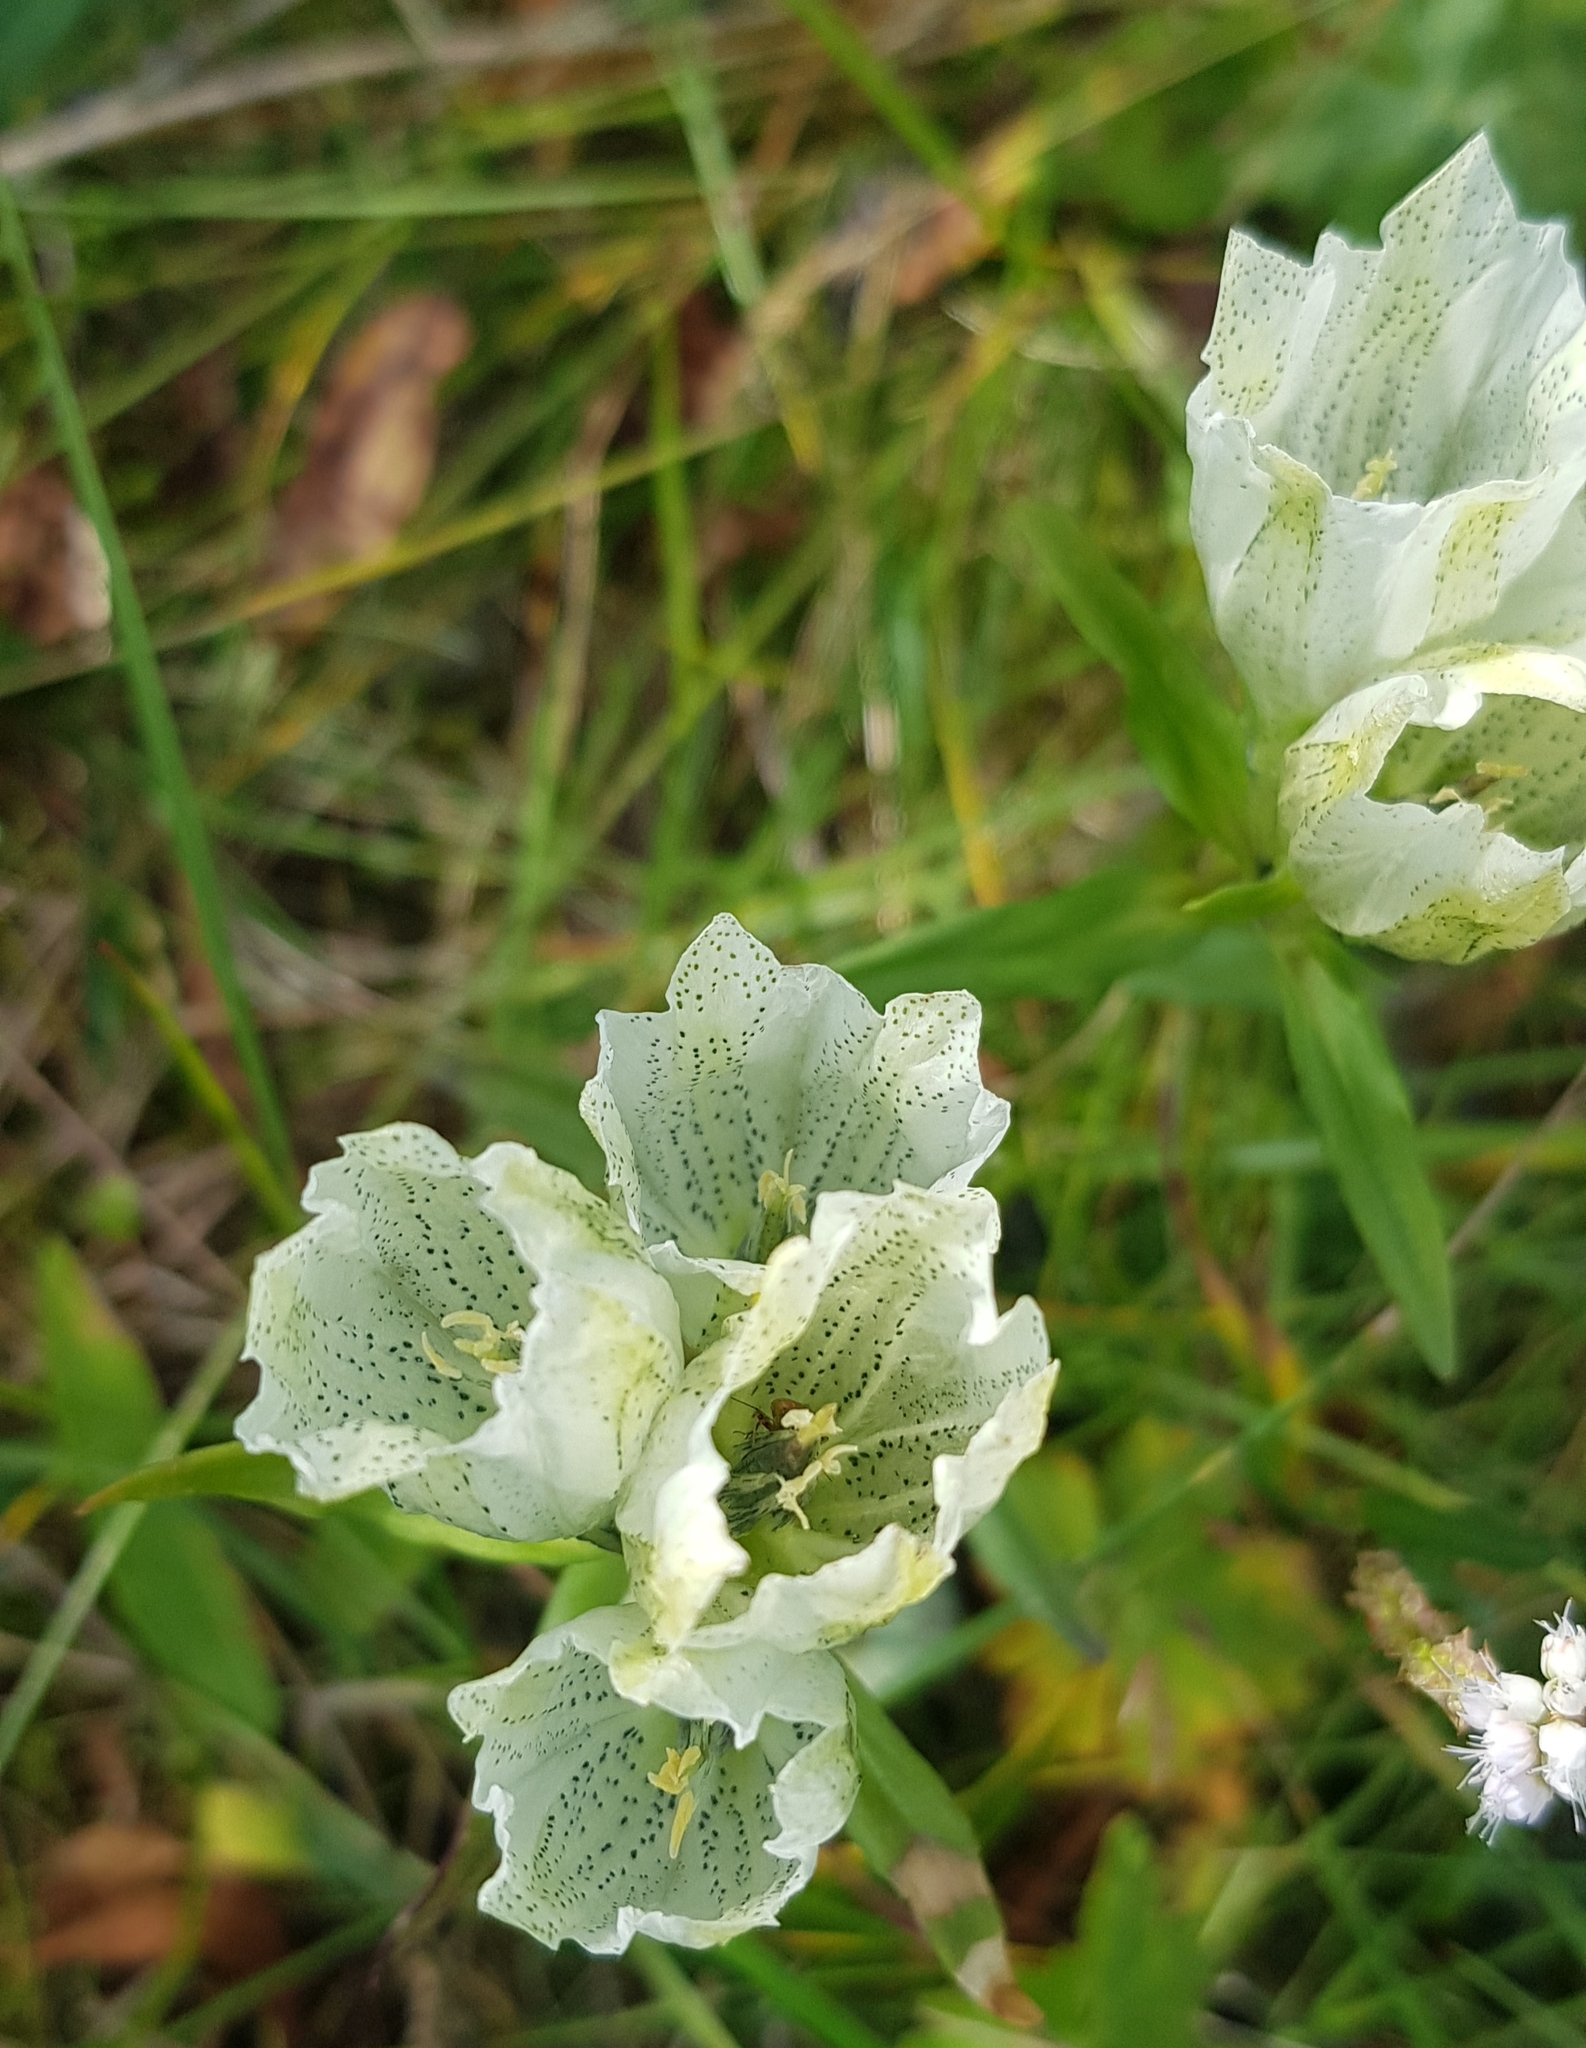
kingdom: Plantae
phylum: Tracheophyta
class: Magnoliopsida
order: Gentianales
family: Gentianaceae
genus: Gentiana
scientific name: Gentiana algida
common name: Arctic gentian
